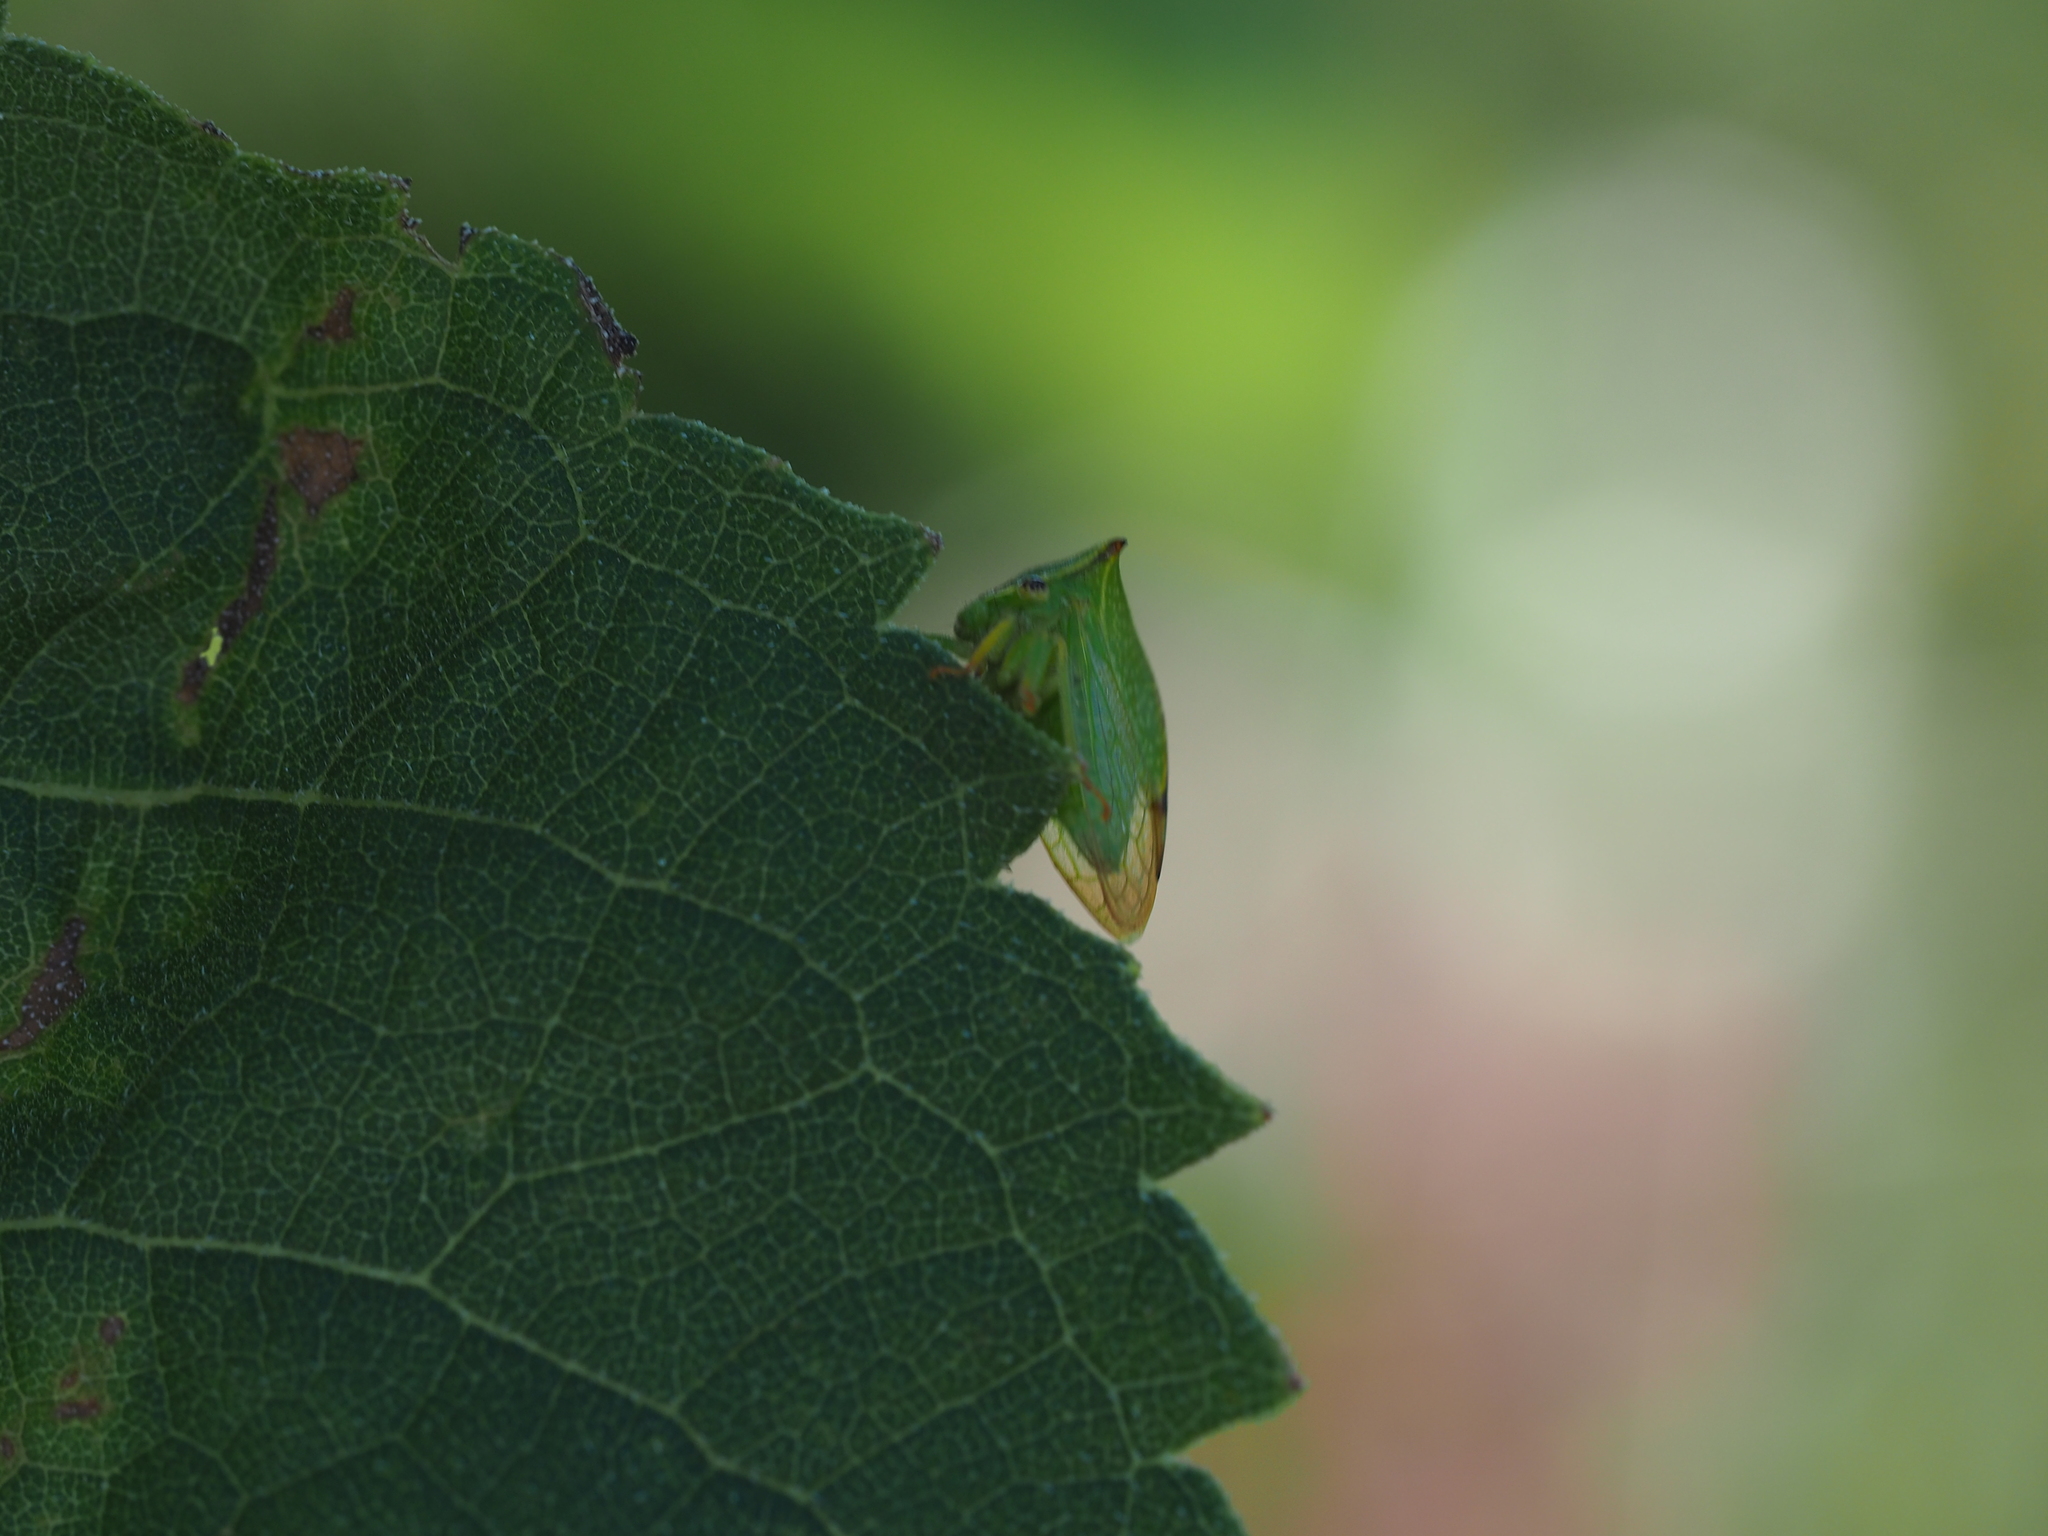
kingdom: Animalia
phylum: Arthropoda
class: Insecta
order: Hemiptera
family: Membracidae
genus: Stictocephala
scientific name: Stictocephala bisonia
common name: American buffalo treehopper
